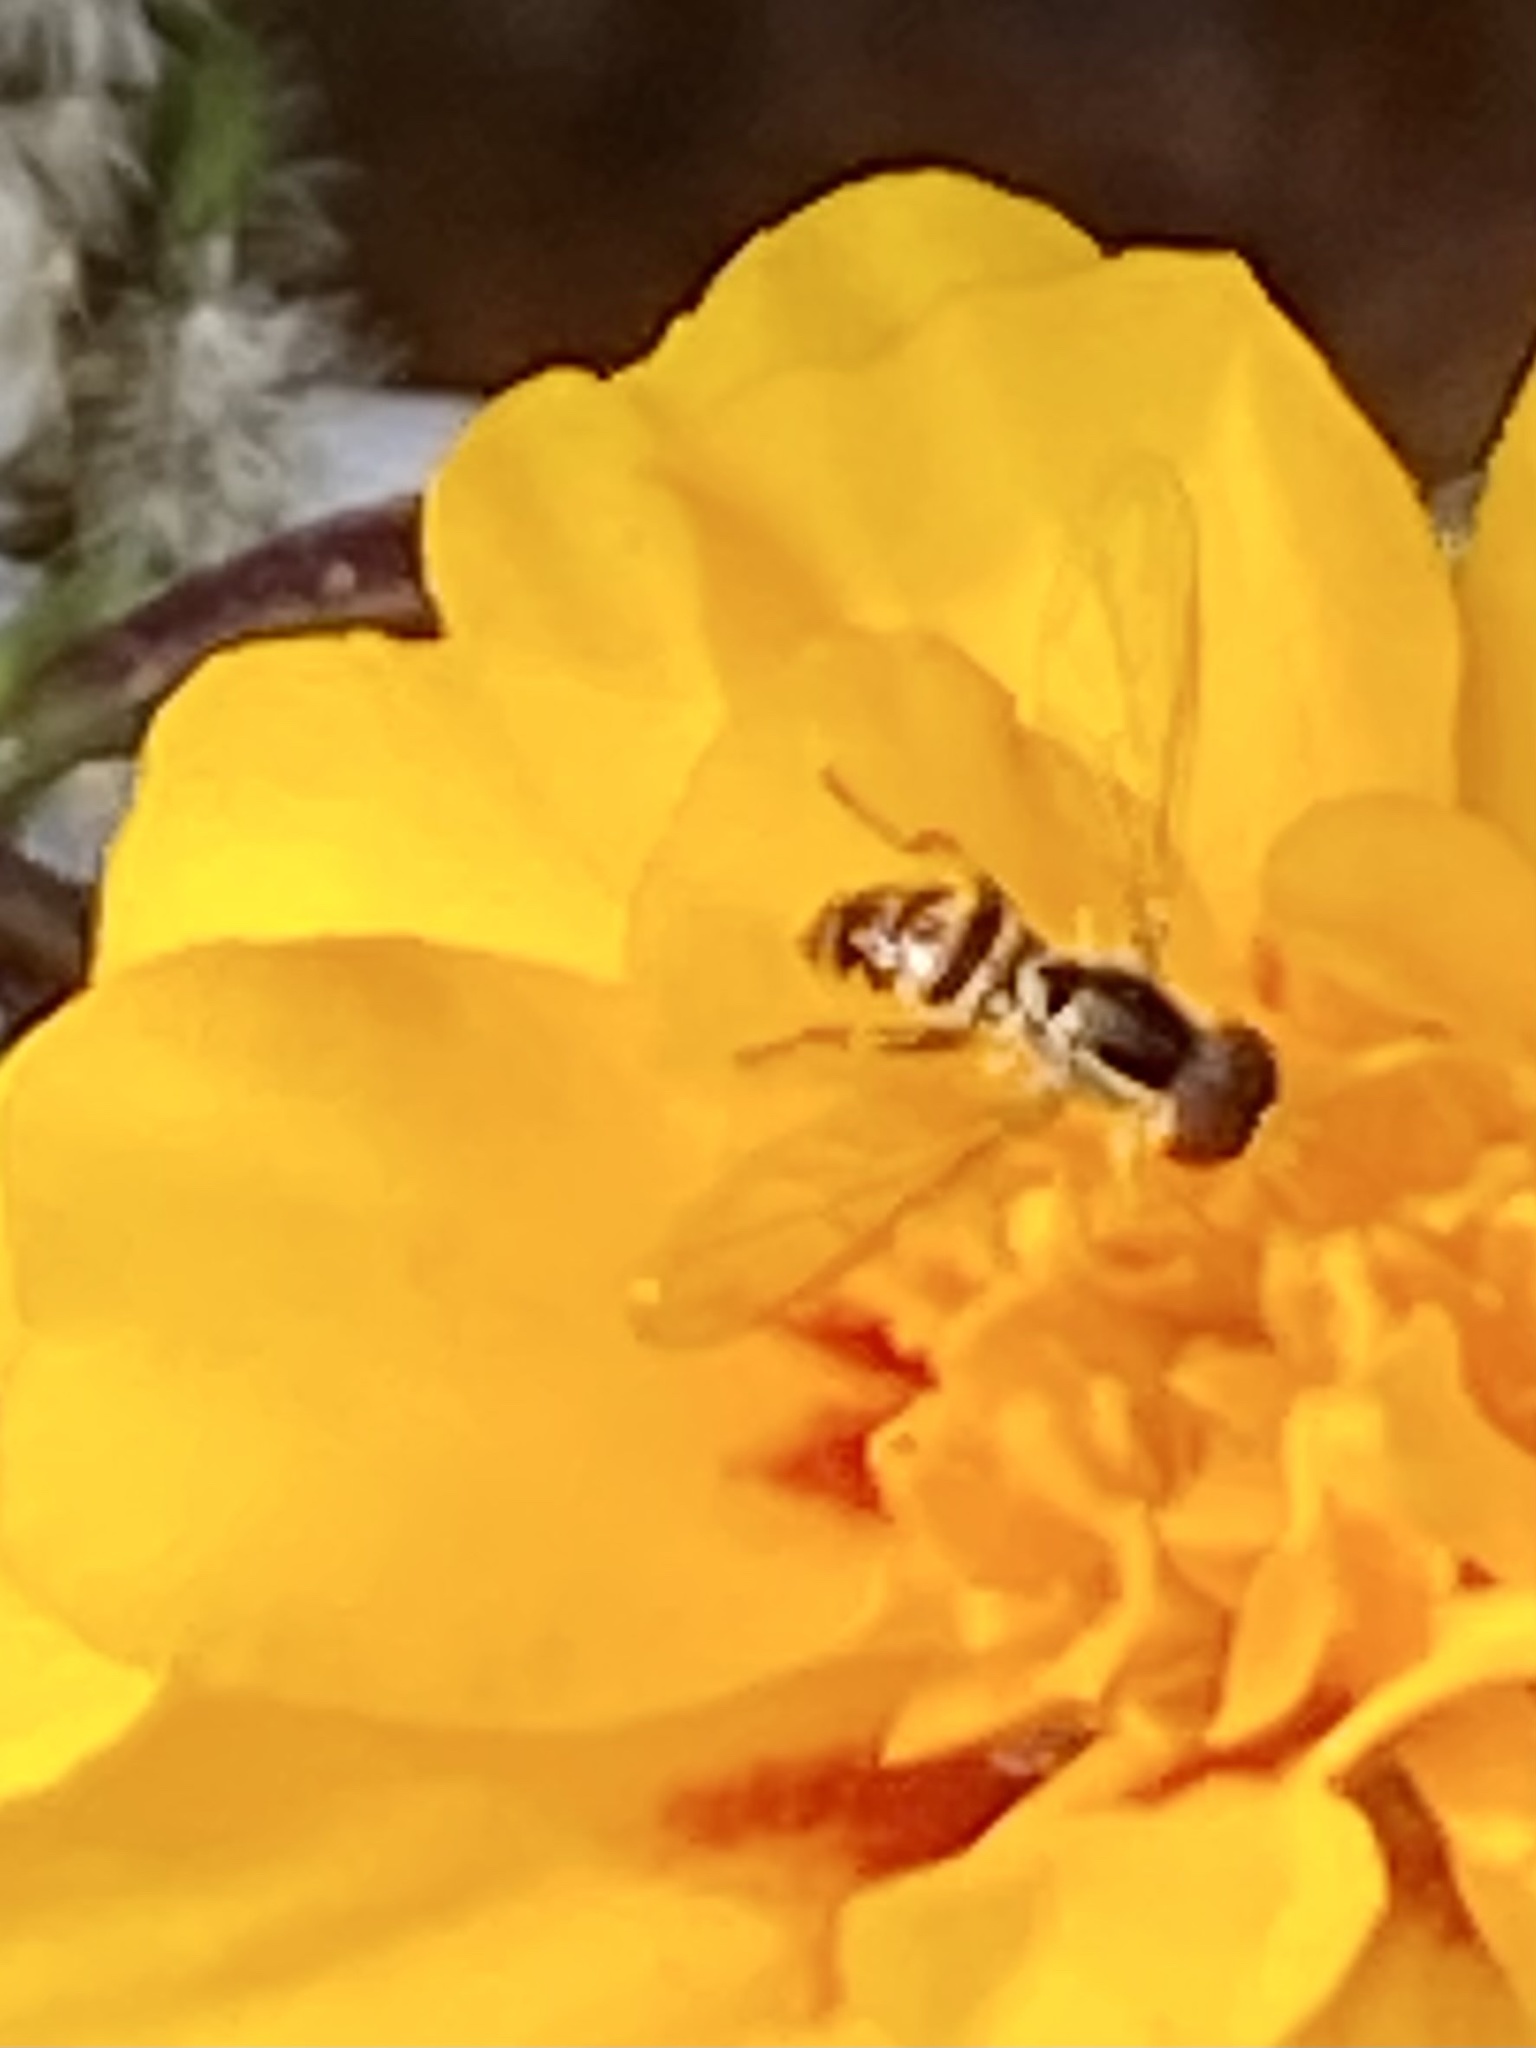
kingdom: Animalia
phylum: Arthropoda
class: Insecta
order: Diptera
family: Syrphidae
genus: Toxomerus
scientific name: Toxomerus geminatus
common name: Eastern calligrapher
